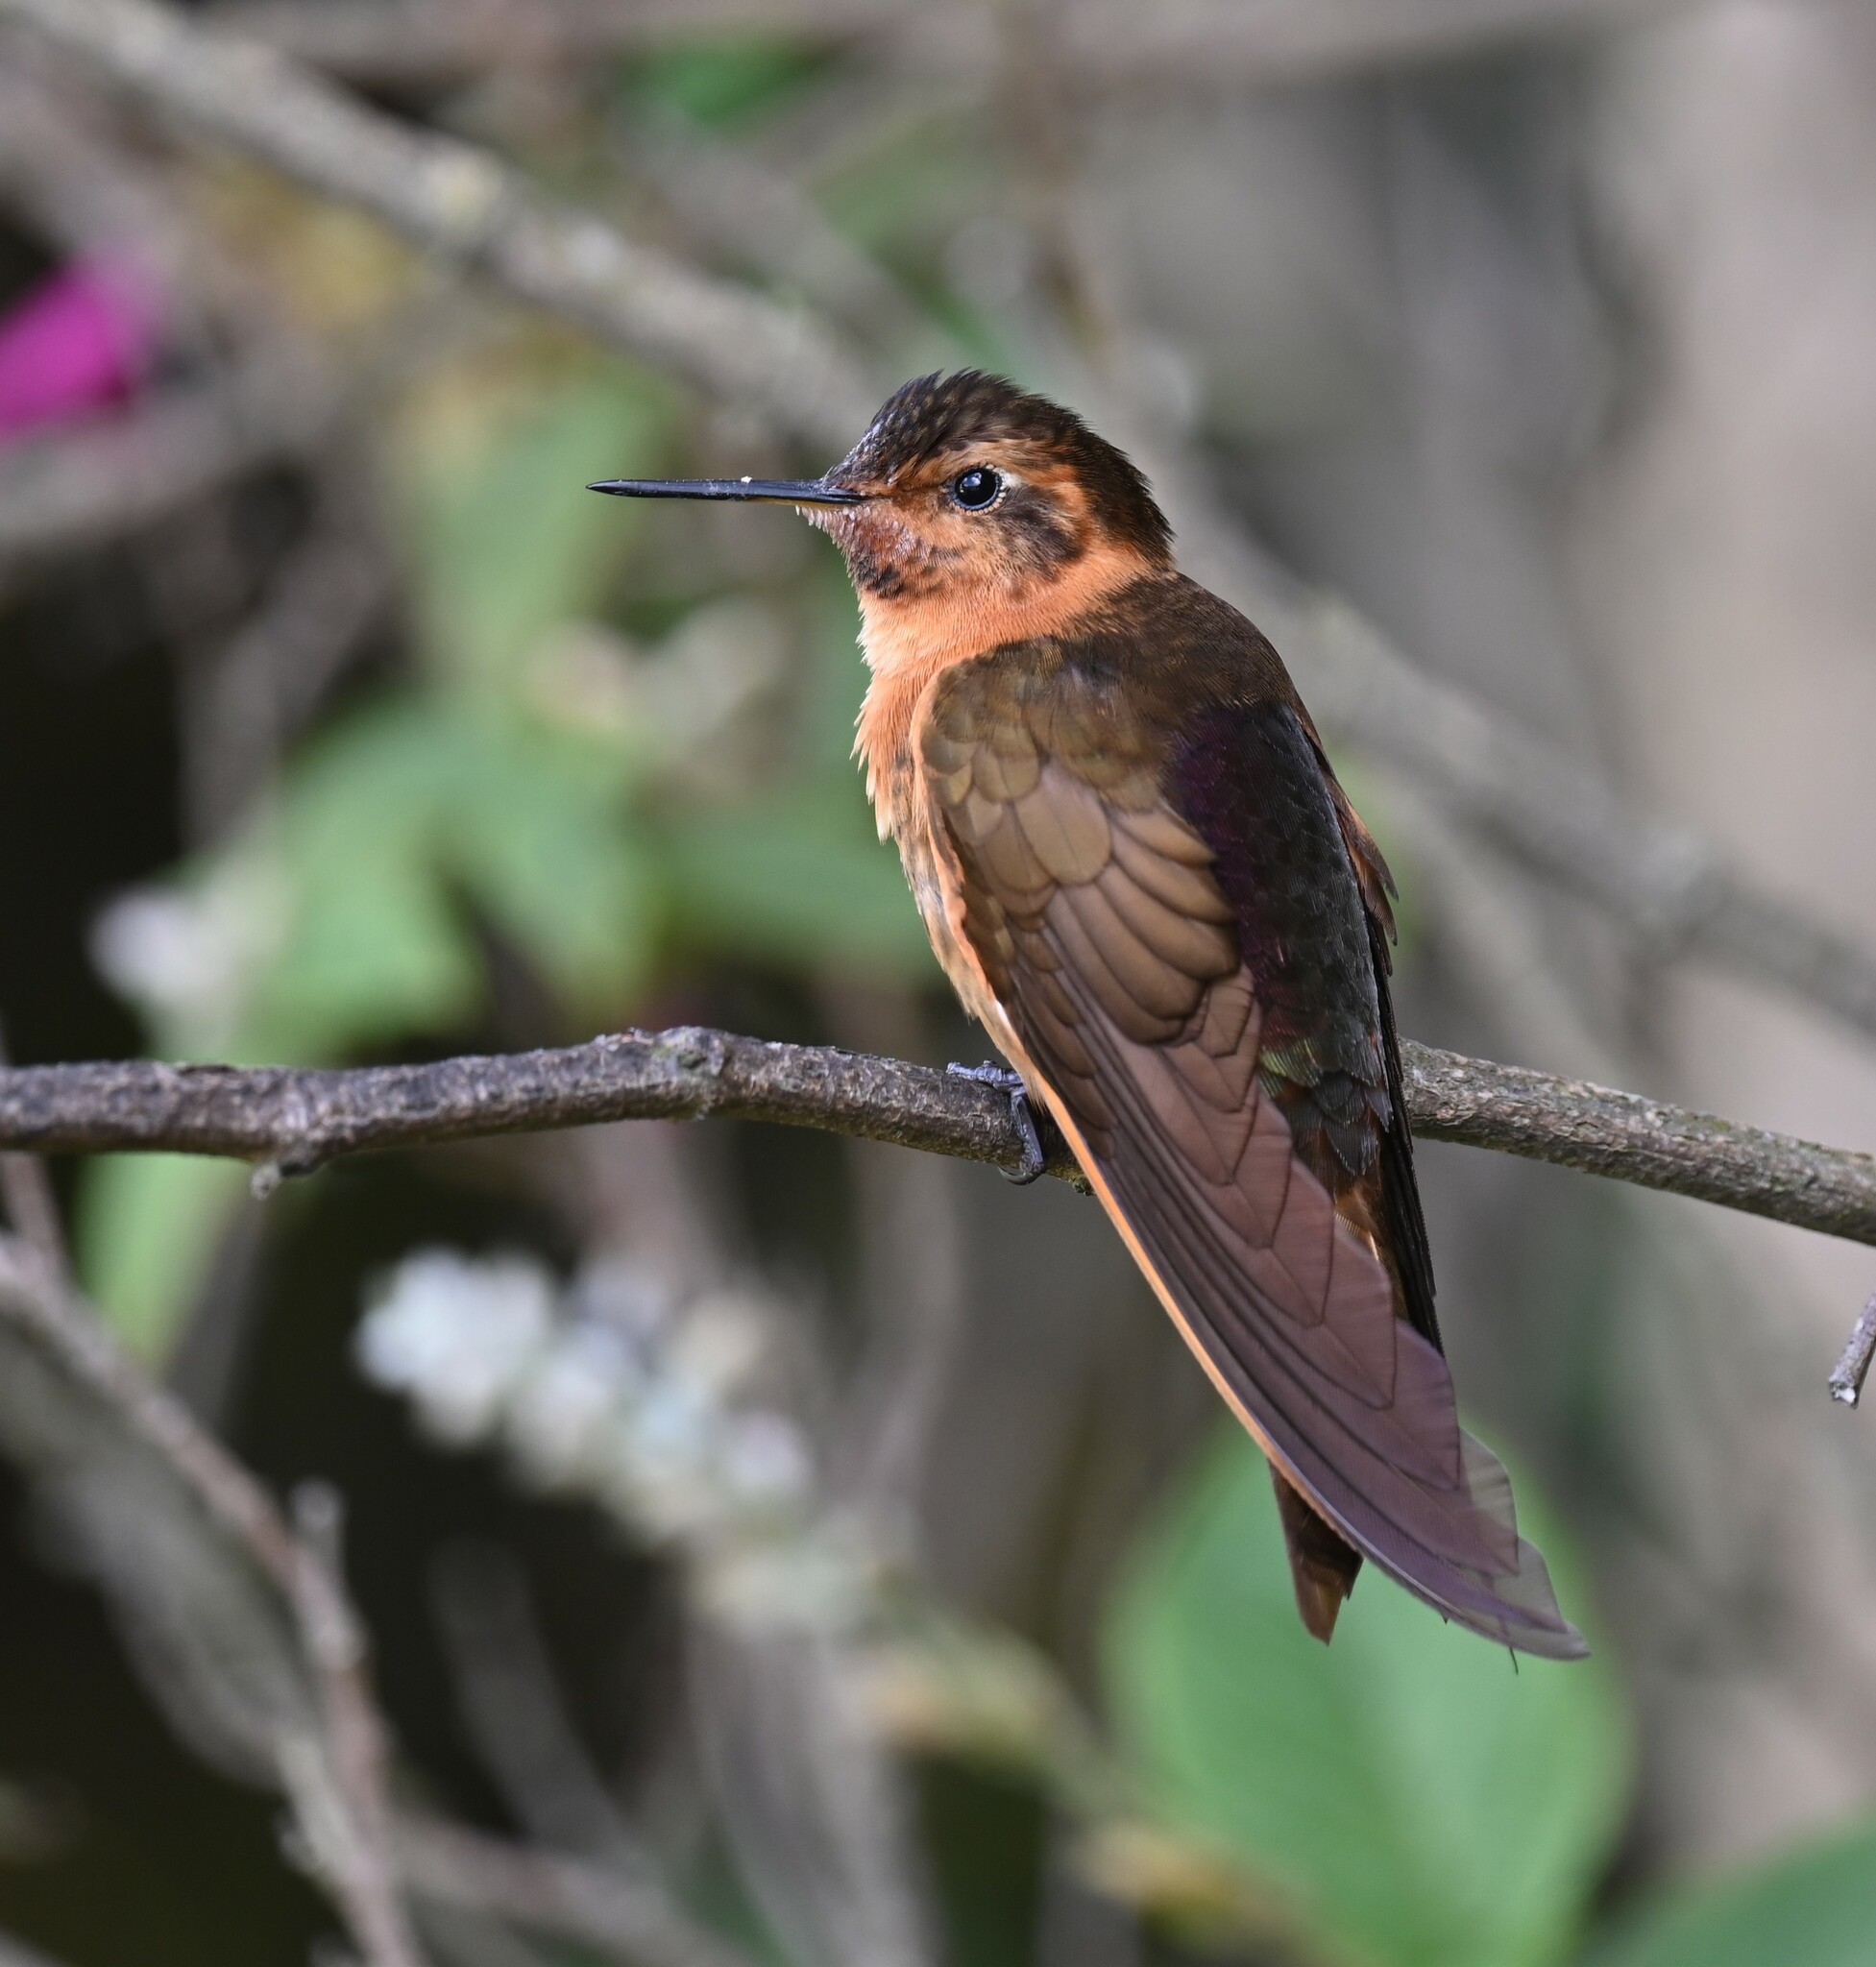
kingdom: Animalia
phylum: Chordata
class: Aves
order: Apodiformes
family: Trochilidae
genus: Aglaeactis
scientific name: Aglaeactis cupripennis
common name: Shining sunbeam
